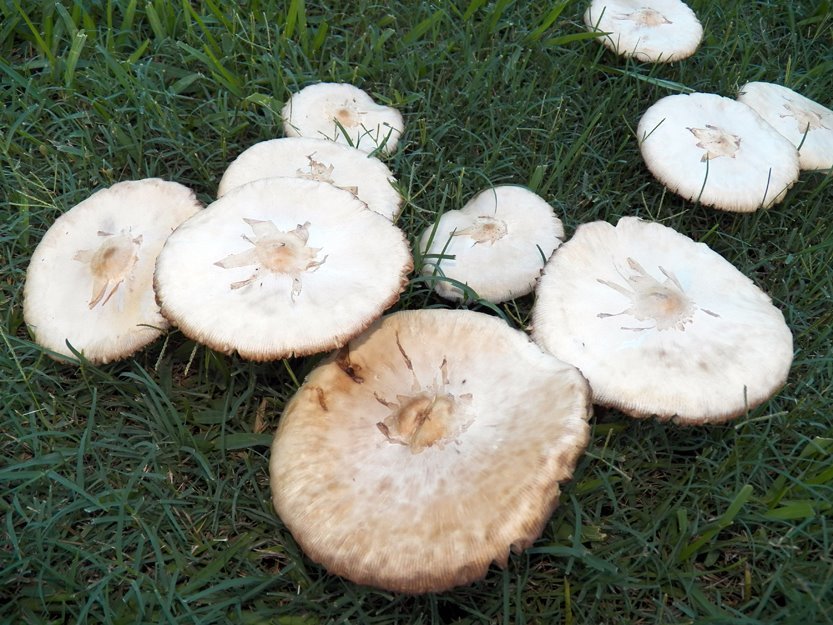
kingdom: Fungi
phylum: Basidiomycota
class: Agaricomycetes
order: Agaricales
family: Agaricaceae
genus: Chlorophyllum
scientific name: Chlorophyllum molybdites
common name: False parasol
